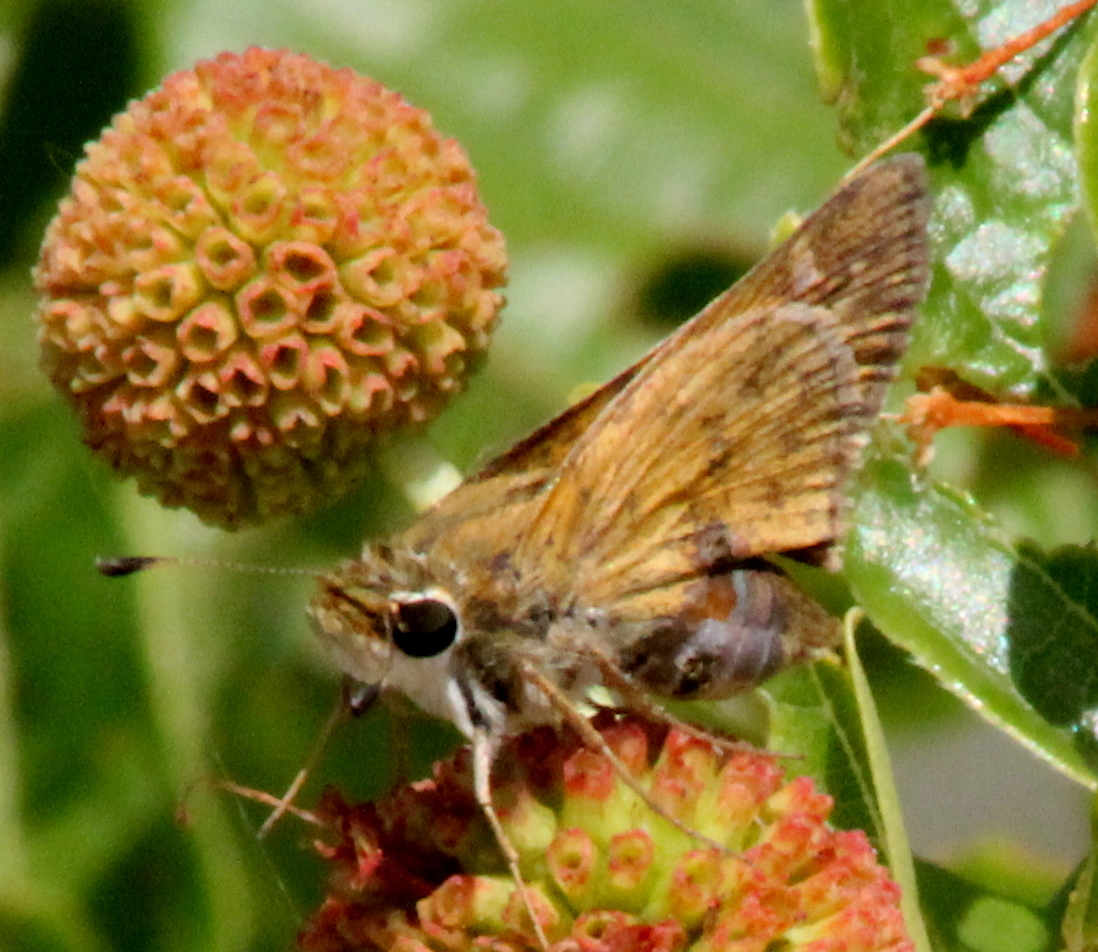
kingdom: Animalia
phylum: Arthropoda
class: Insecta
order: Lepidoptera
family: Hesperiidae
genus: Atalopedes
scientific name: Atalopedes
